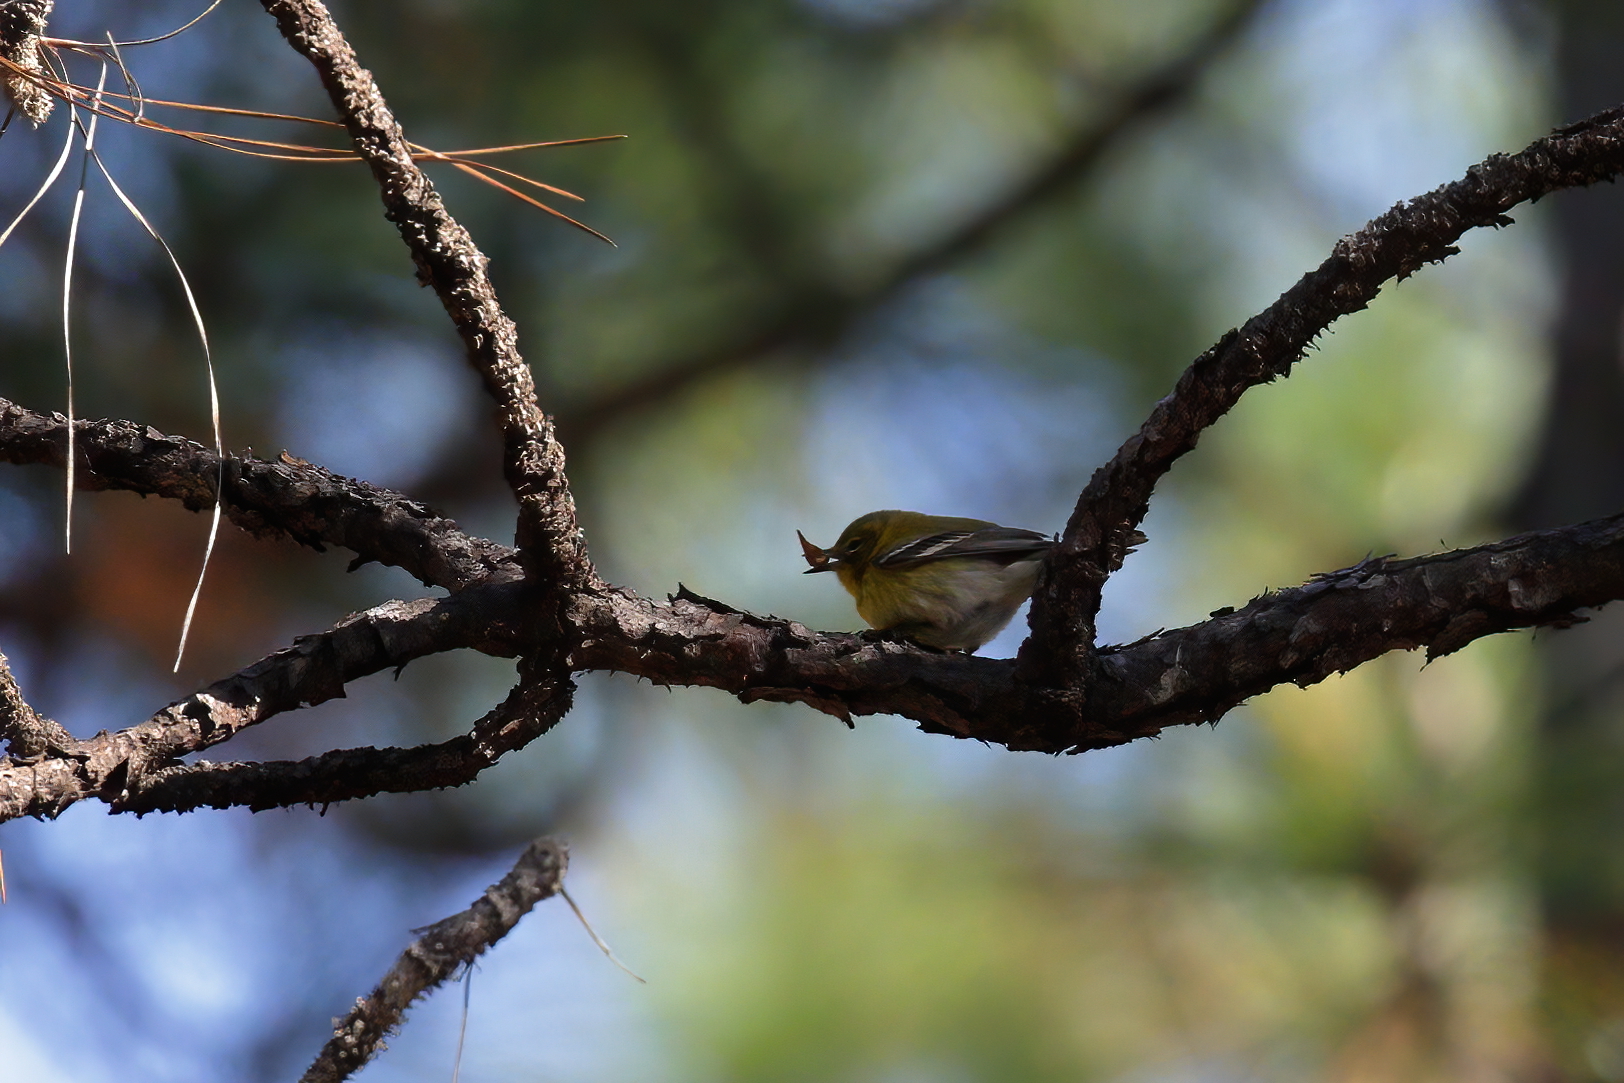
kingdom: Animalia
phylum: Chordata
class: Aves
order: Passeriformes
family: Parulidae
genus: Setophaga
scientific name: Setophaga pinus
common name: Pine warbler
